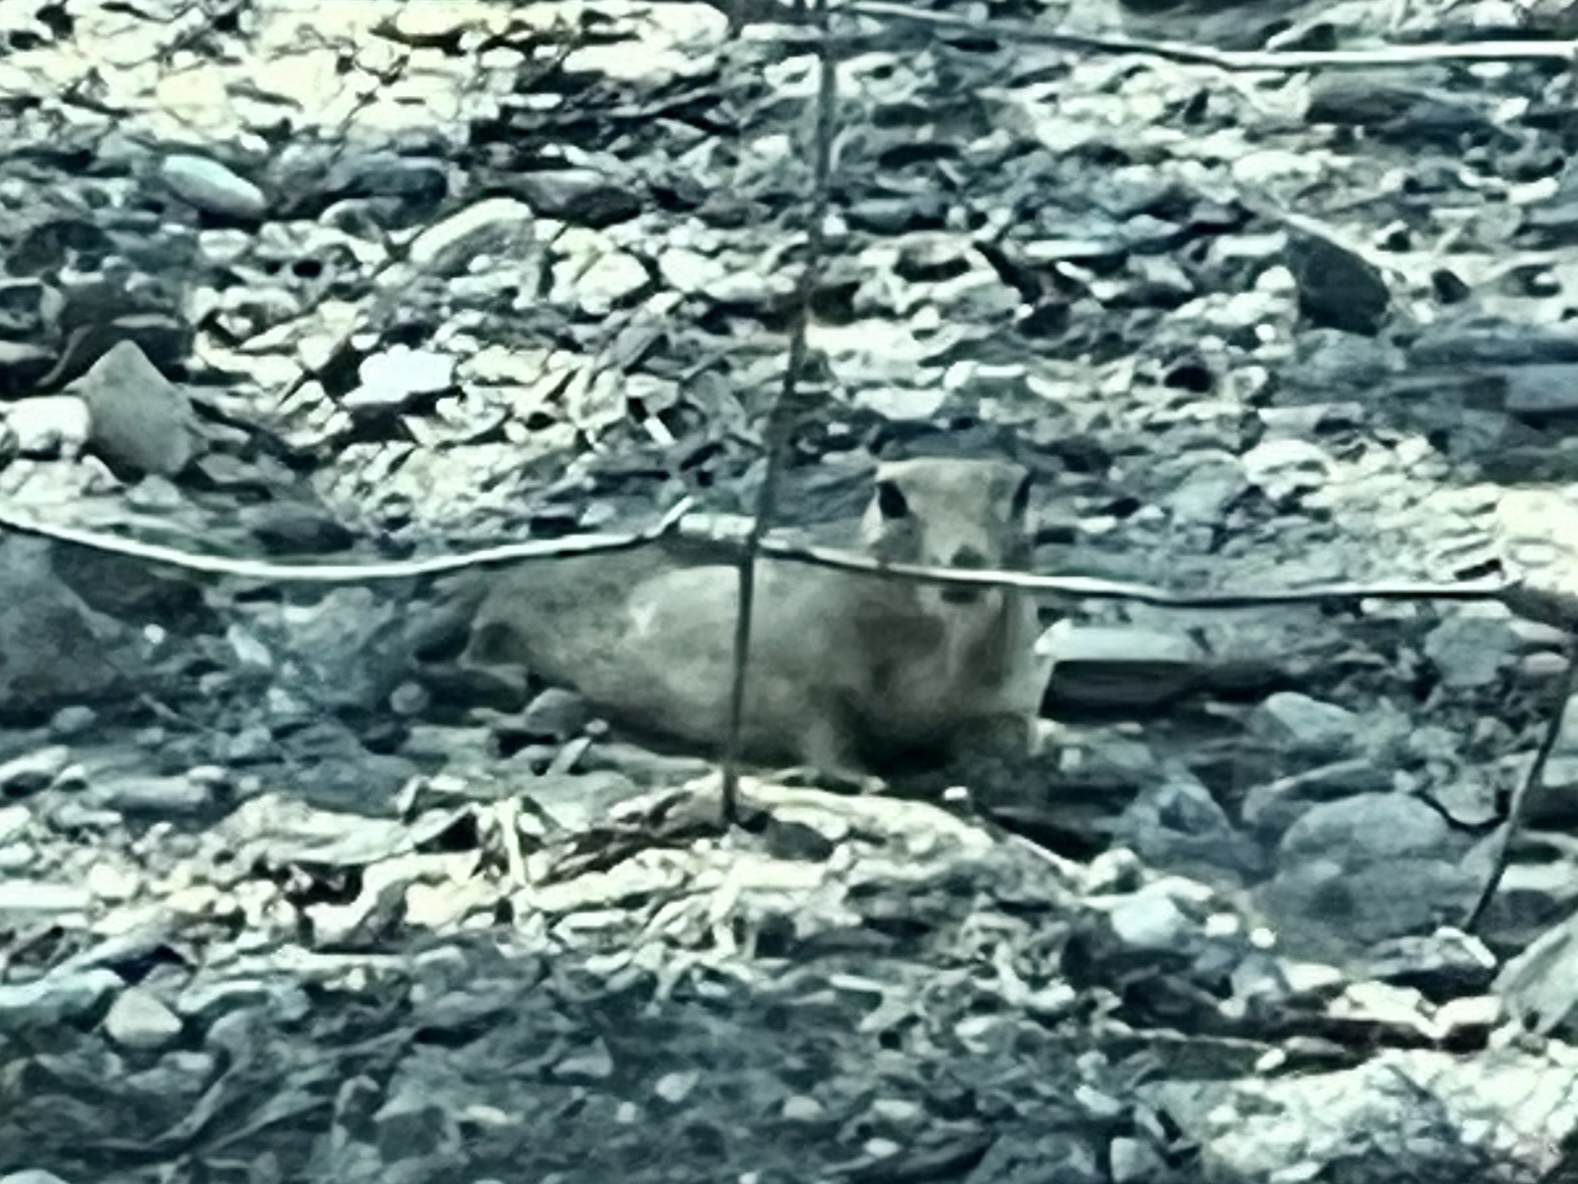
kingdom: Animalia
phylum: Chordata
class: Mammalia
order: Rodentia
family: Sciuridae
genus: Xerospermophilus
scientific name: Xerospermophilus tereticaudus
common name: Round-tailed ground squirrel
